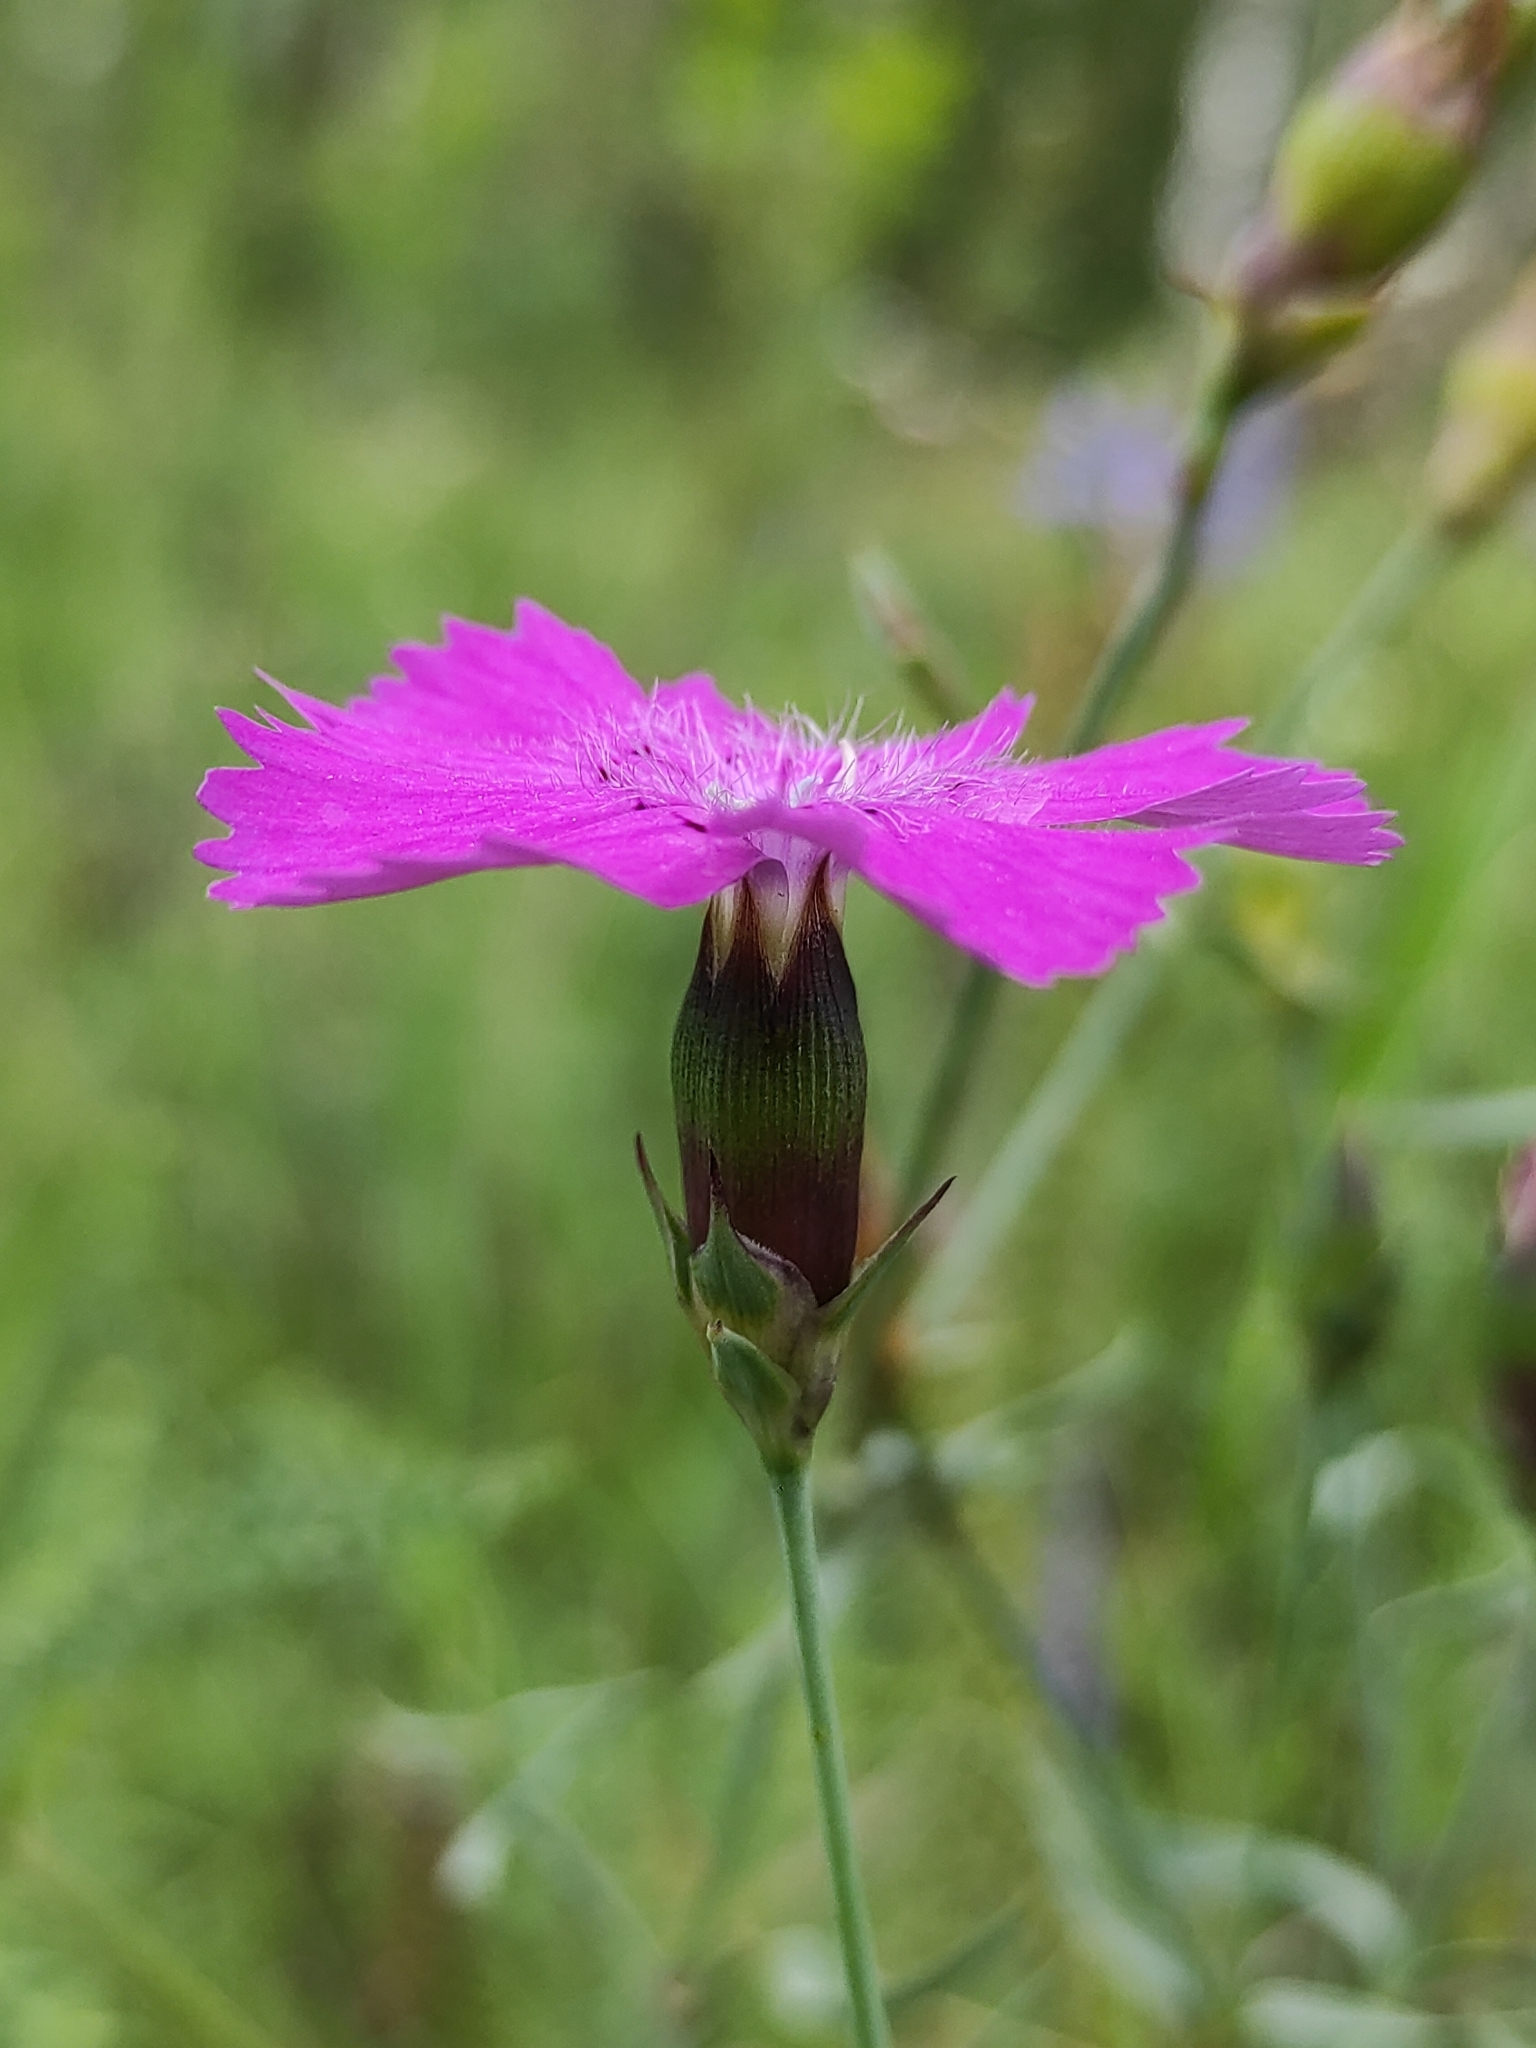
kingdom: Plantae
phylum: Tracheophyta
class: Magnoliopsida
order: Caryophyllales
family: Caryophyllaceae
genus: Dianthus
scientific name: Dianthus chinensis
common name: Rainbow pink
